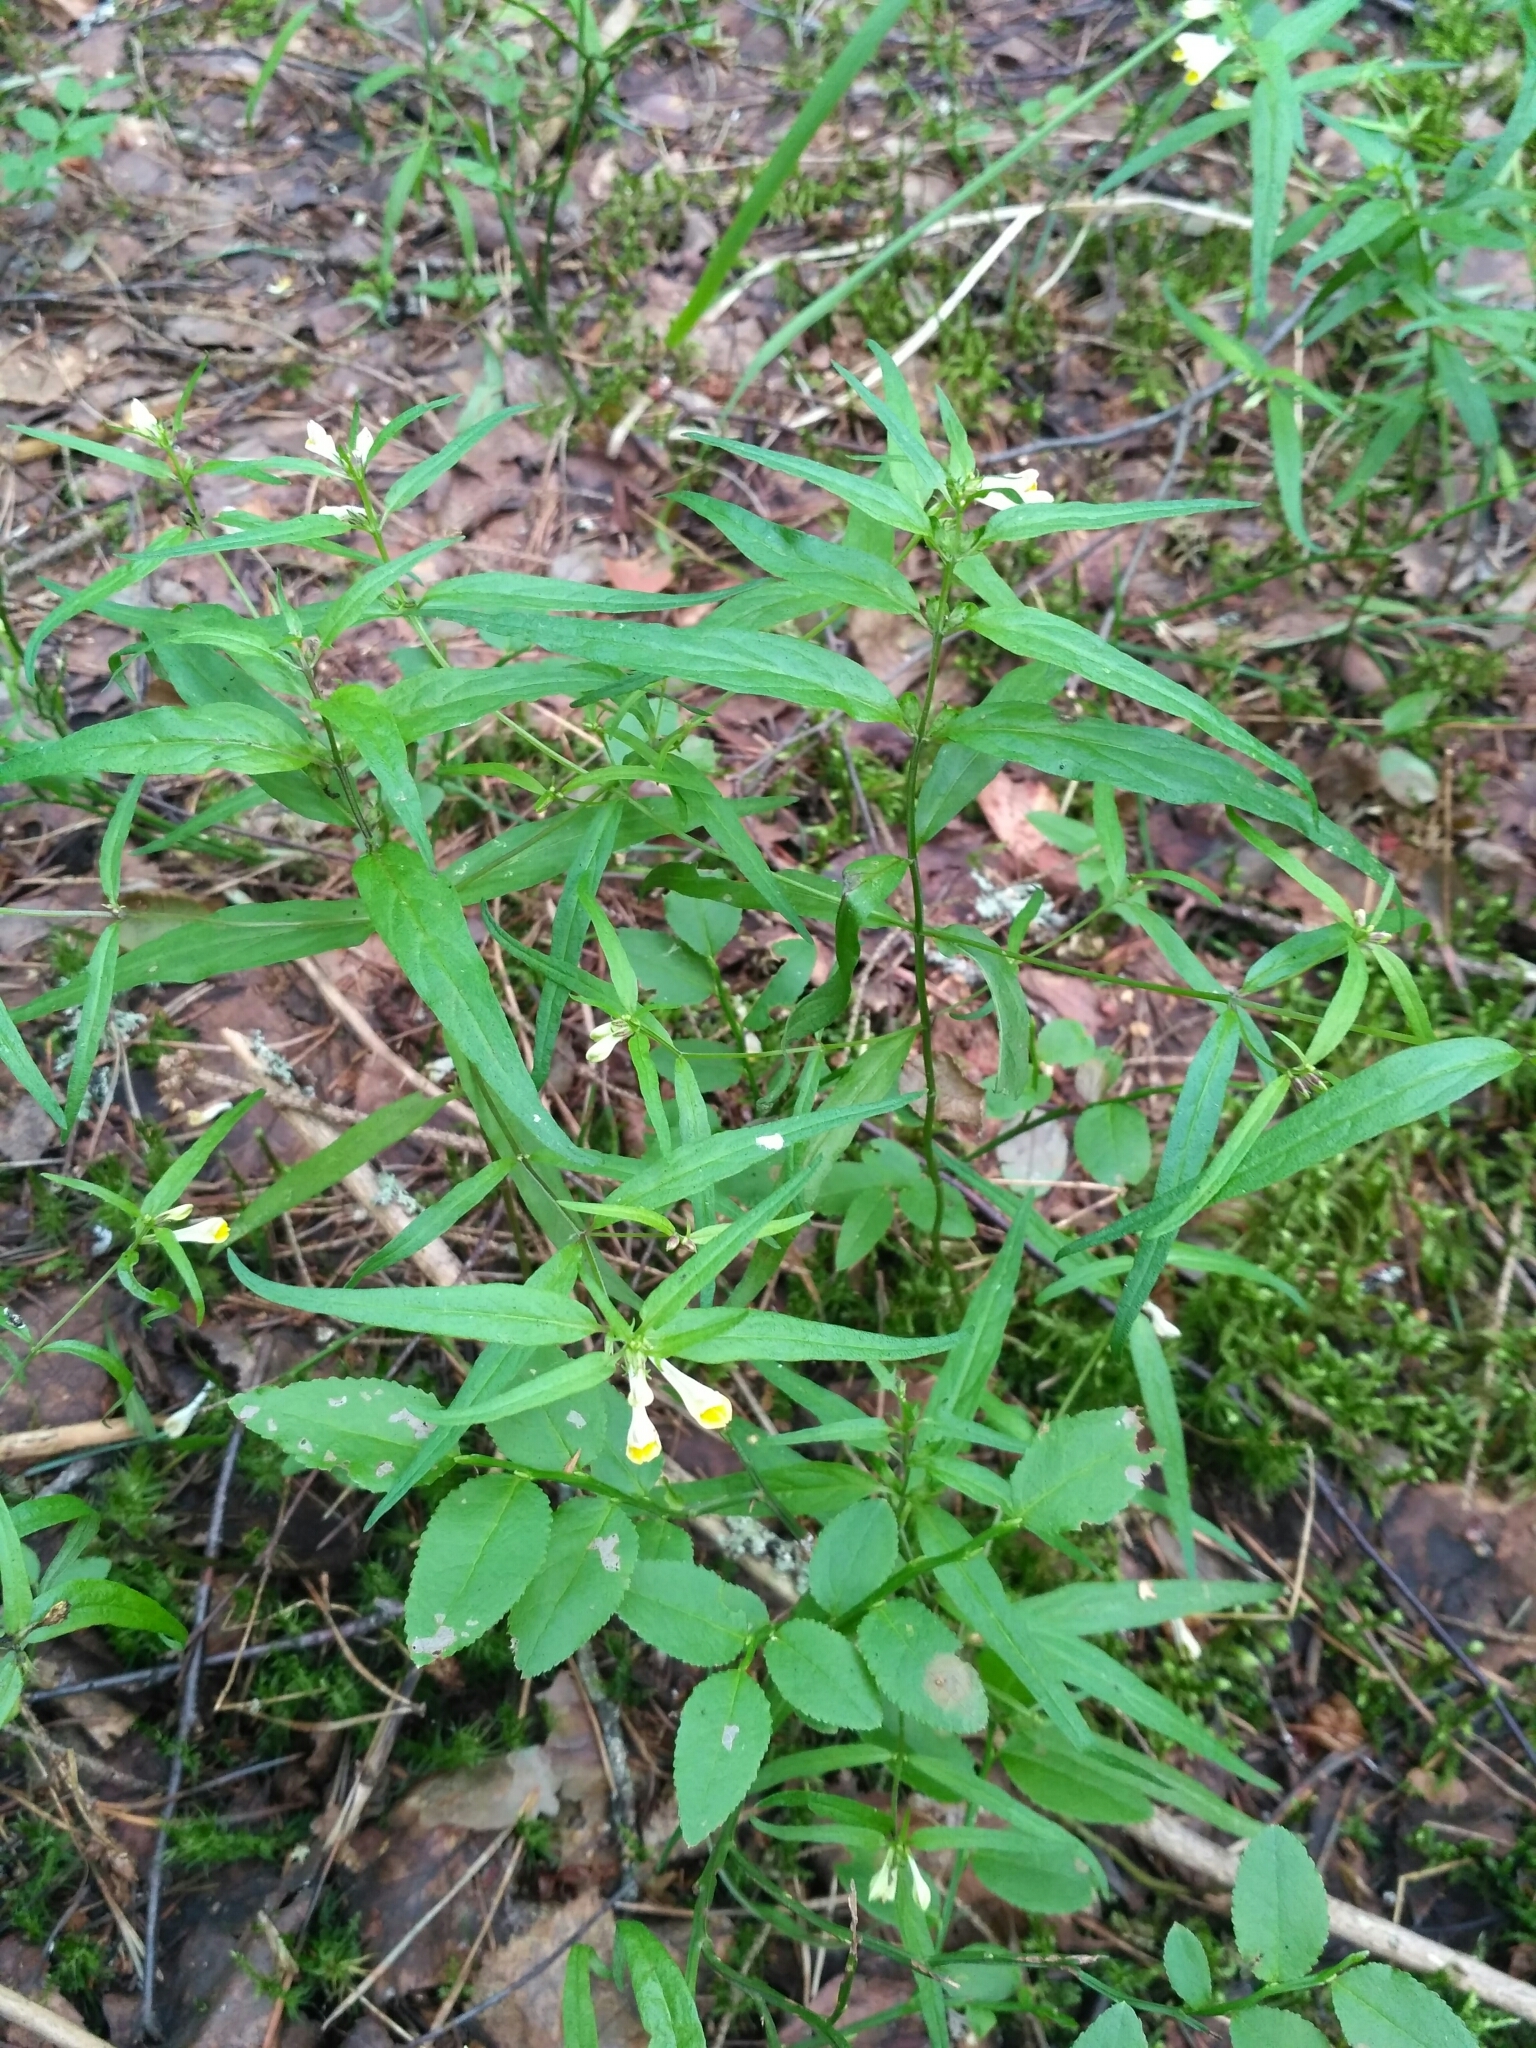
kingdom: Plantae
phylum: Tracheophyta
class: Magnoliopsida
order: Lamiales
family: Orobanchaceae
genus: Melampyrum
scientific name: Melampyrum pratense
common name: Common cow-wheat
